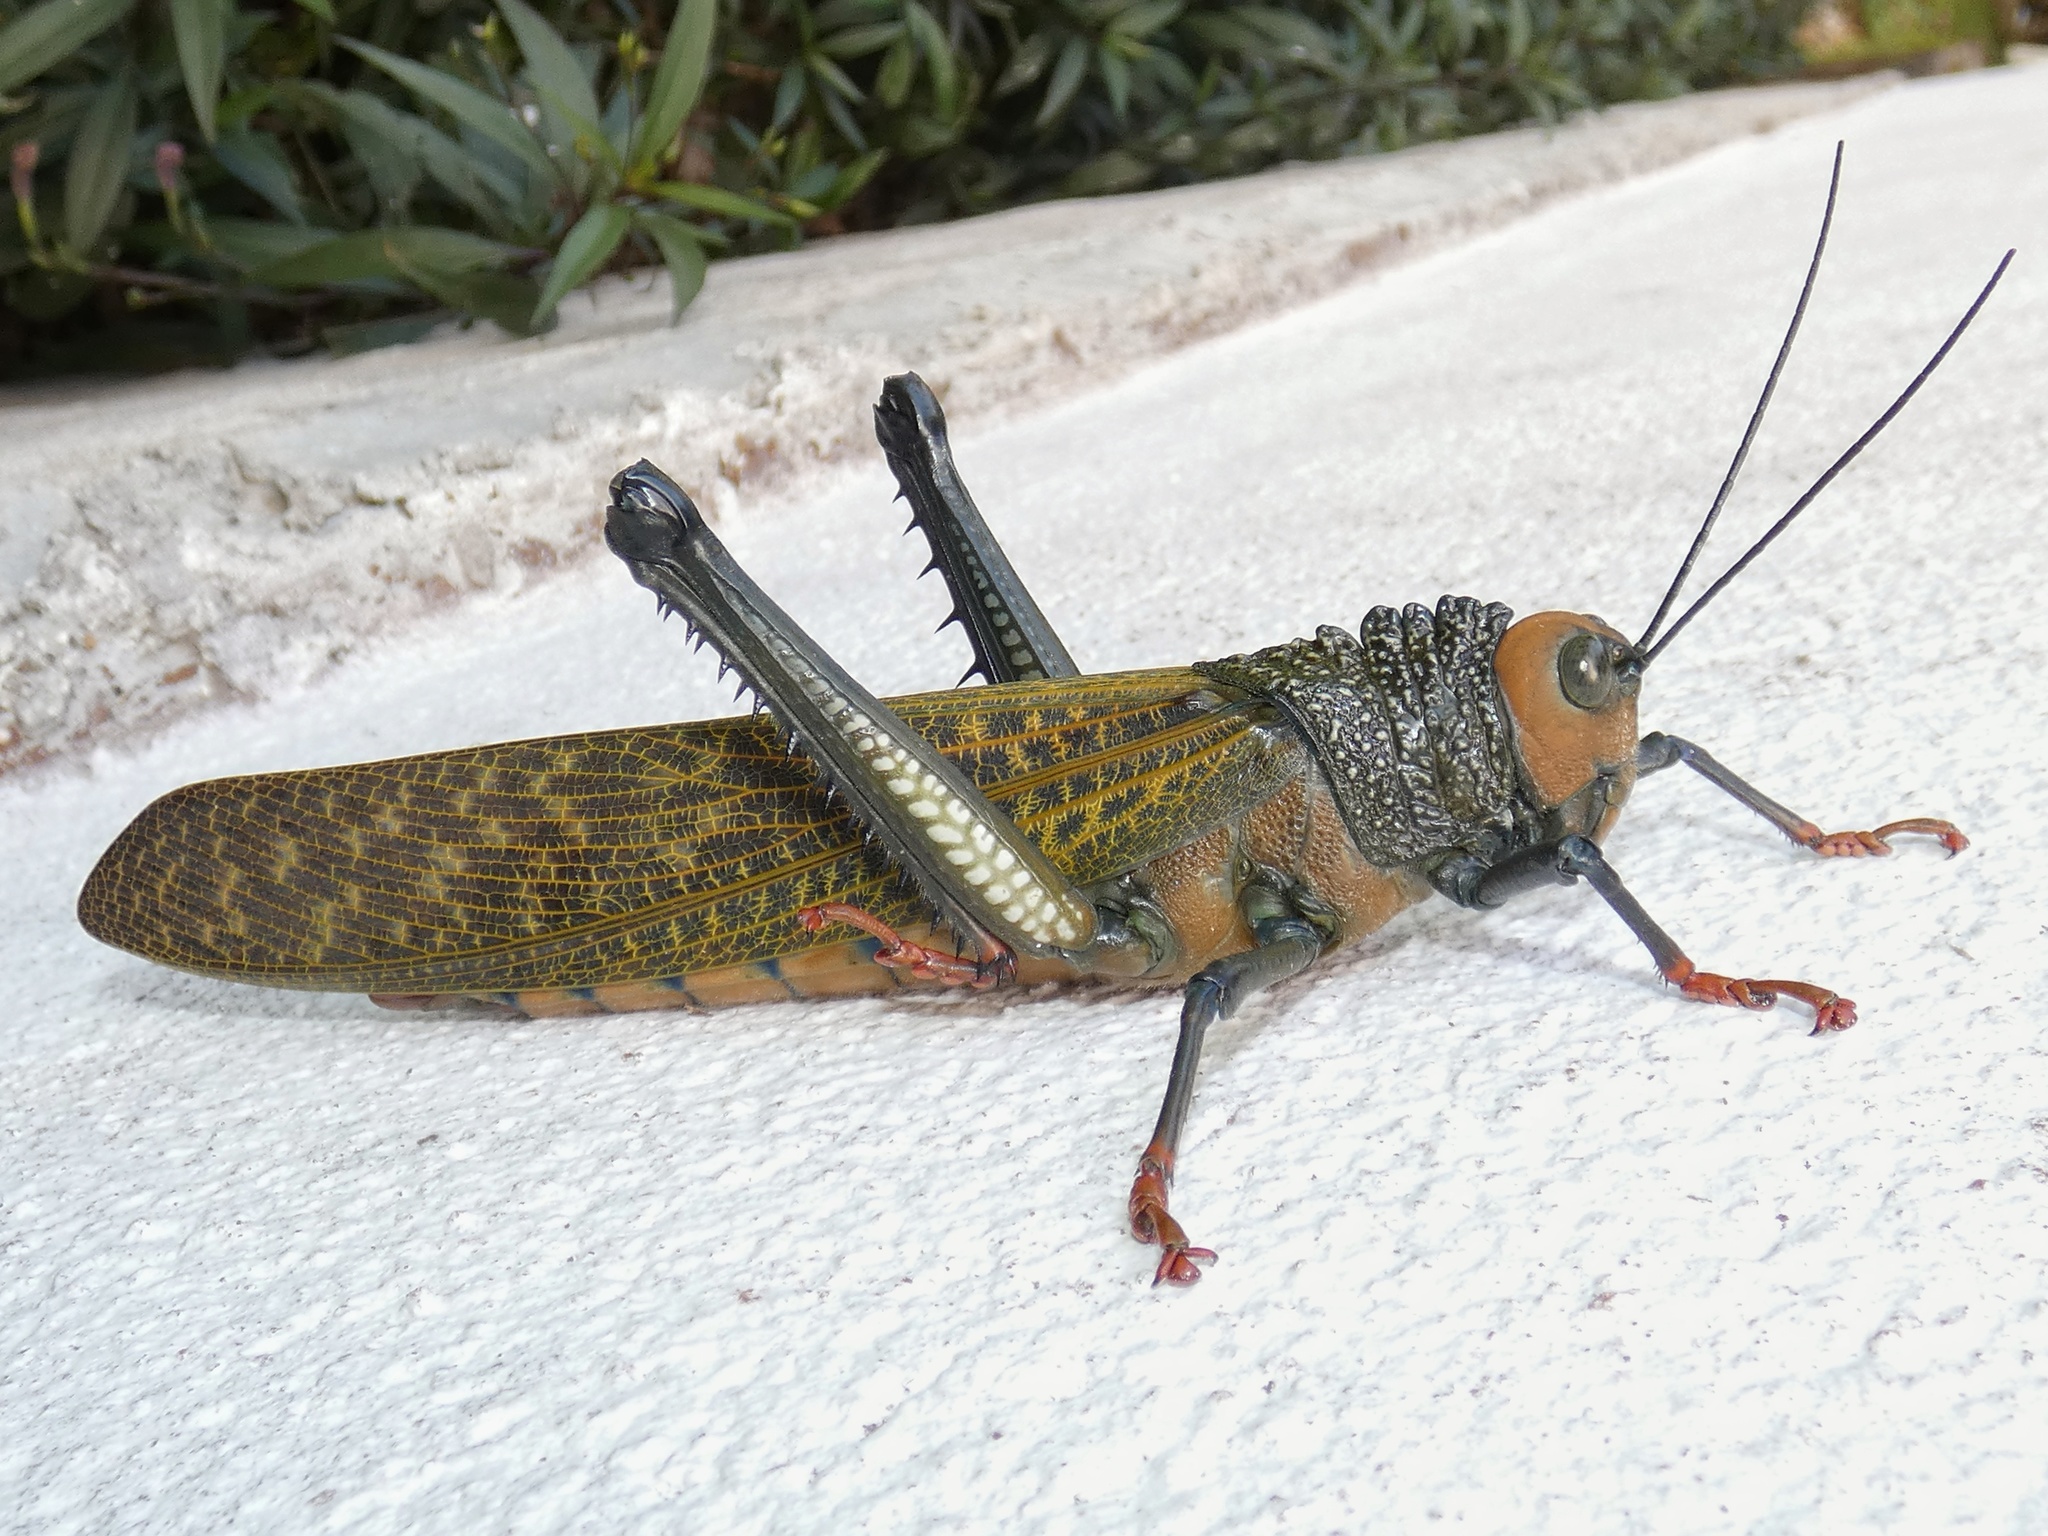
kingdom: Animalia
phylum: Arthropoda
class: Insecta
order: Orthoptera
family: Romaleidae
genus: Tropidacris
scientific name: Tropidacris cristata
